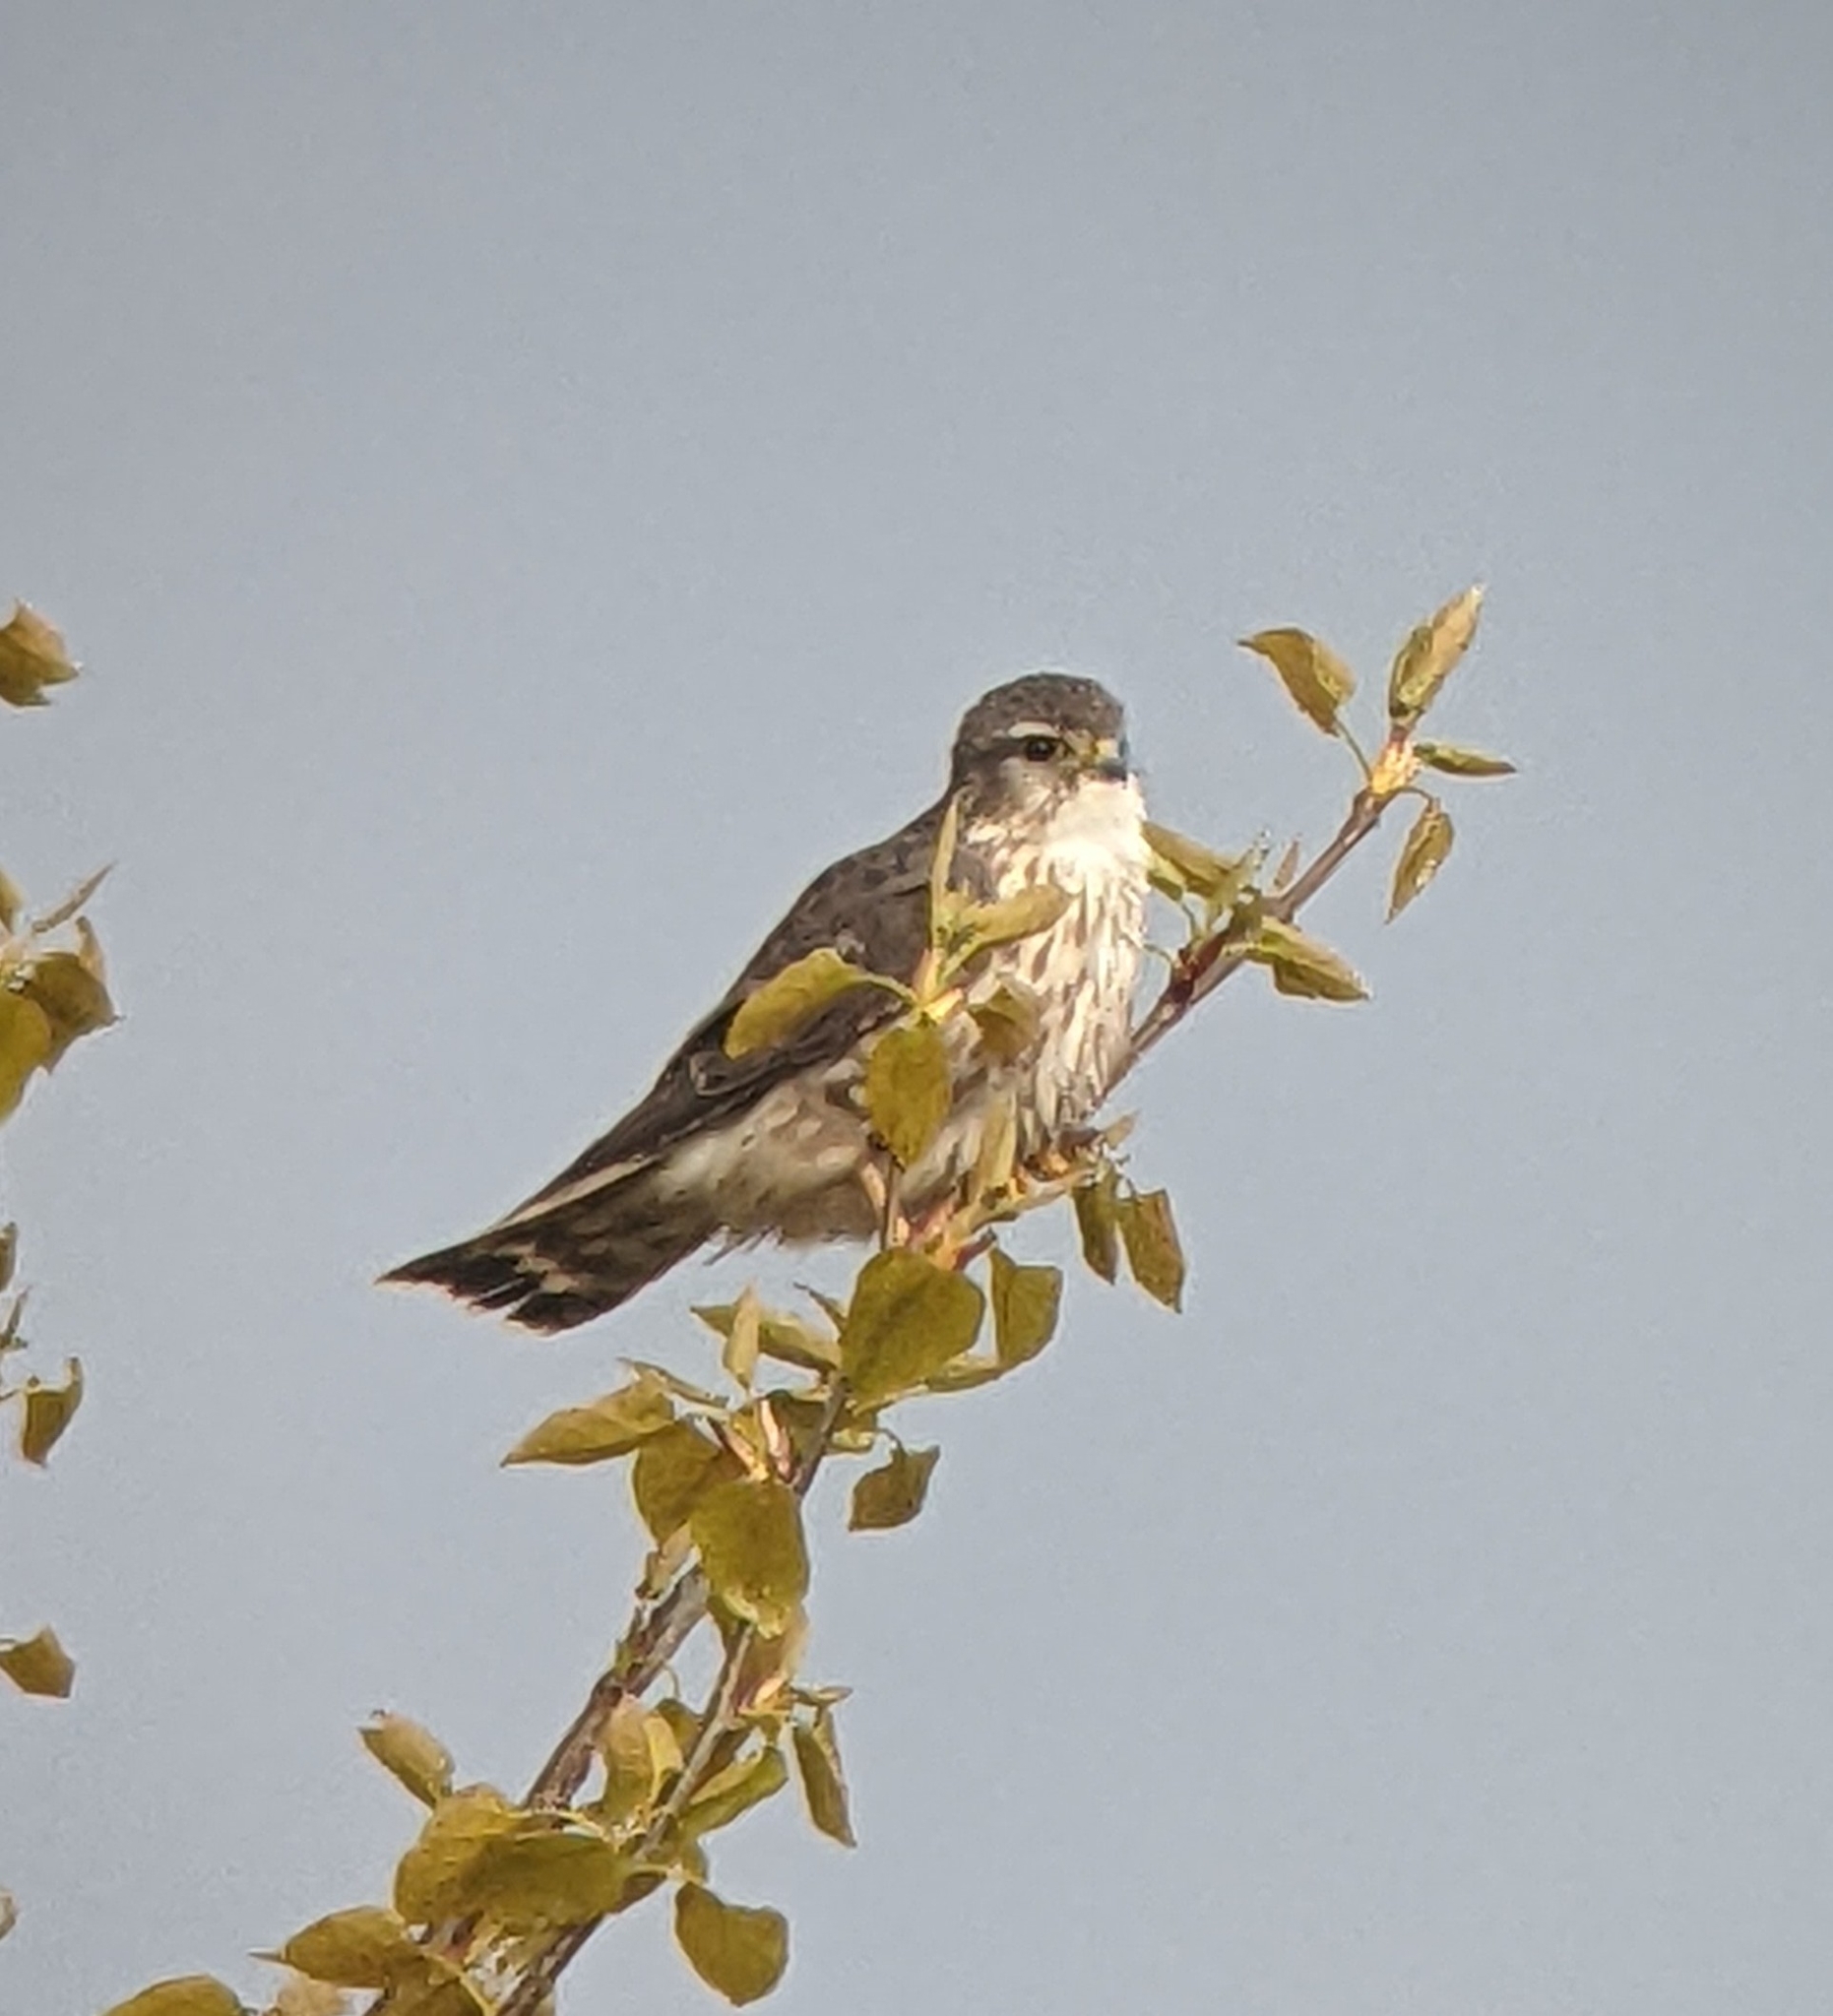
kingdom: Animalia
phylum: Chordata
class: Aves
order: Falconiformes
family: Falconidae
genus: Falco
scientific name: Falco columbarius
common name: Merlin
